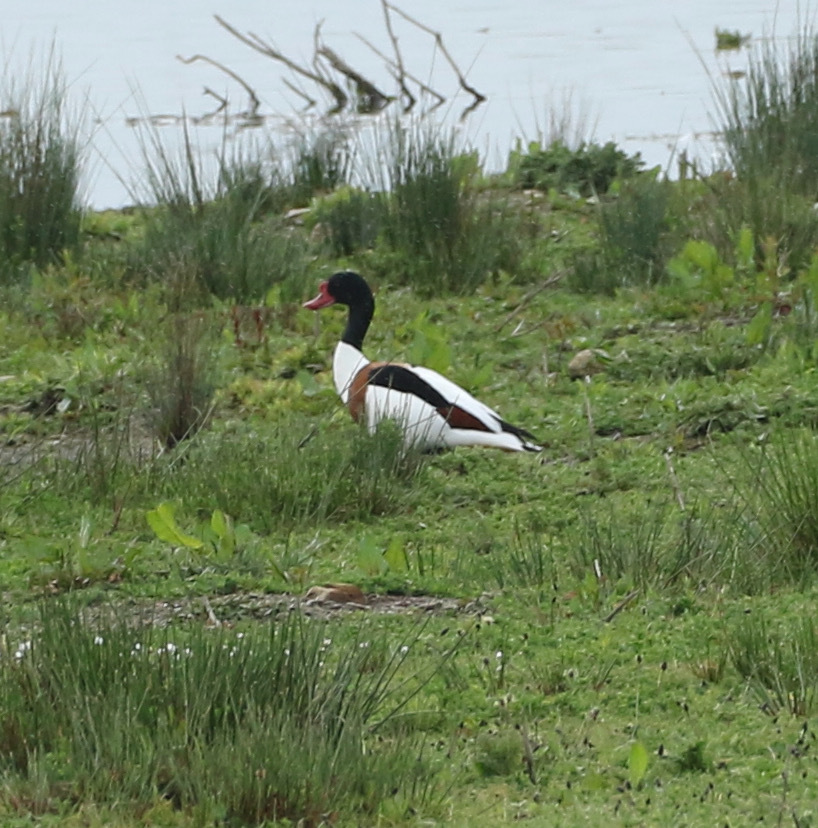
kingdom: Animalia
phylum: Chordata
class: Aves
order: Anseriformes
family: Anatidae
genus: Tadorna
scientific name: Tadorna tadorna
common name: Common shelduck
